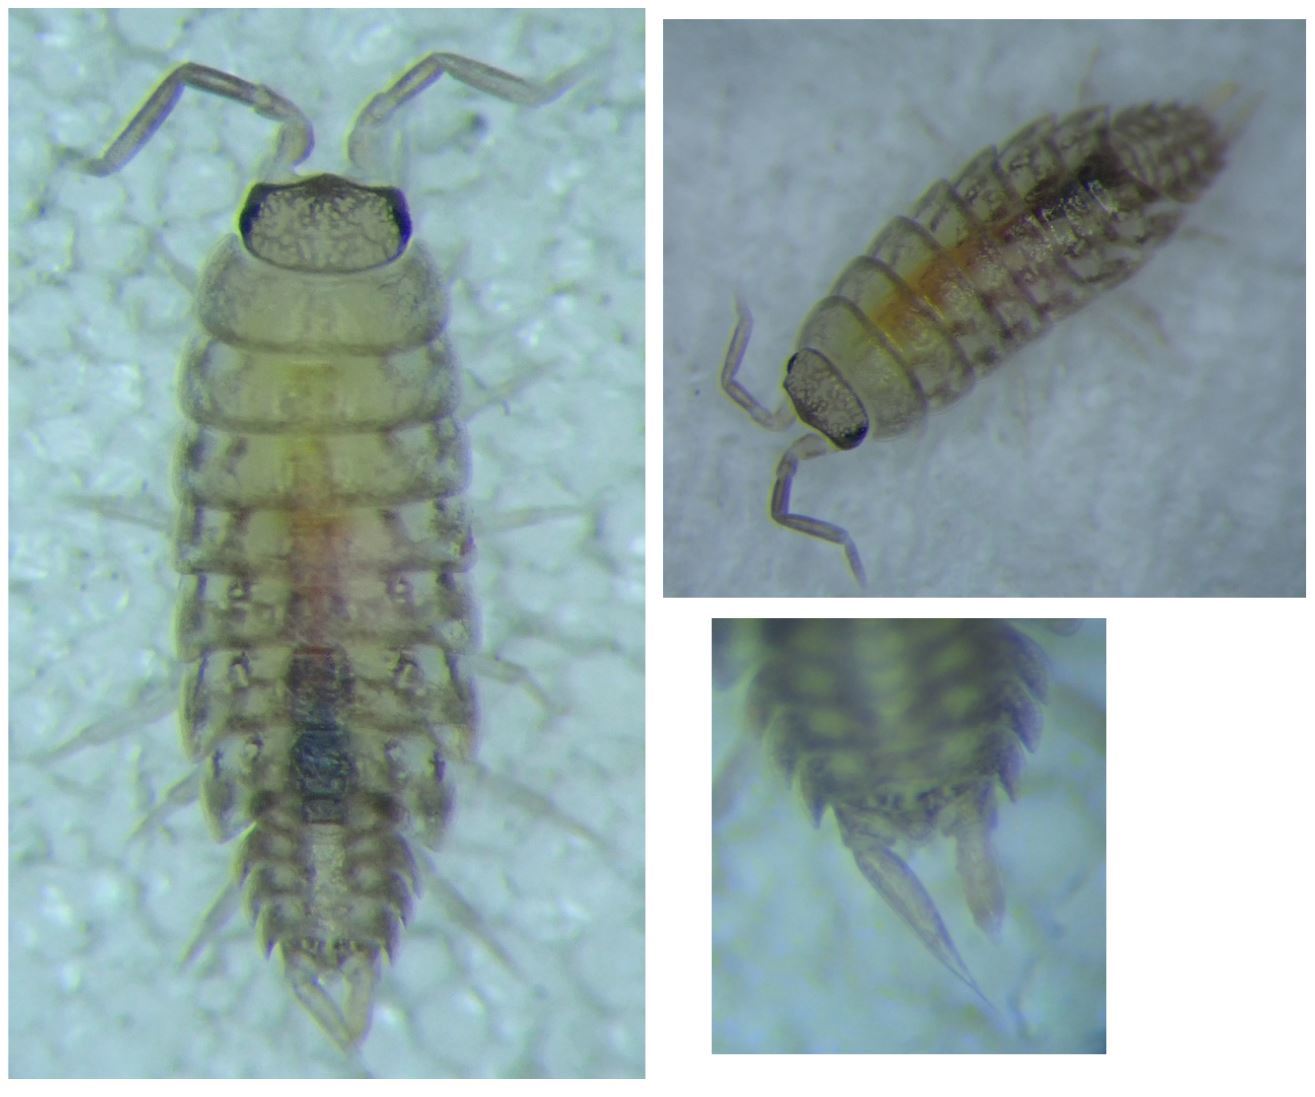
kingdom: Animalia
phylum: Arthropoda
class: Malacostraca
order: Isopoda
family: Agnaridae
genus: Orthometopon
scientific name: Orthometopon planum
